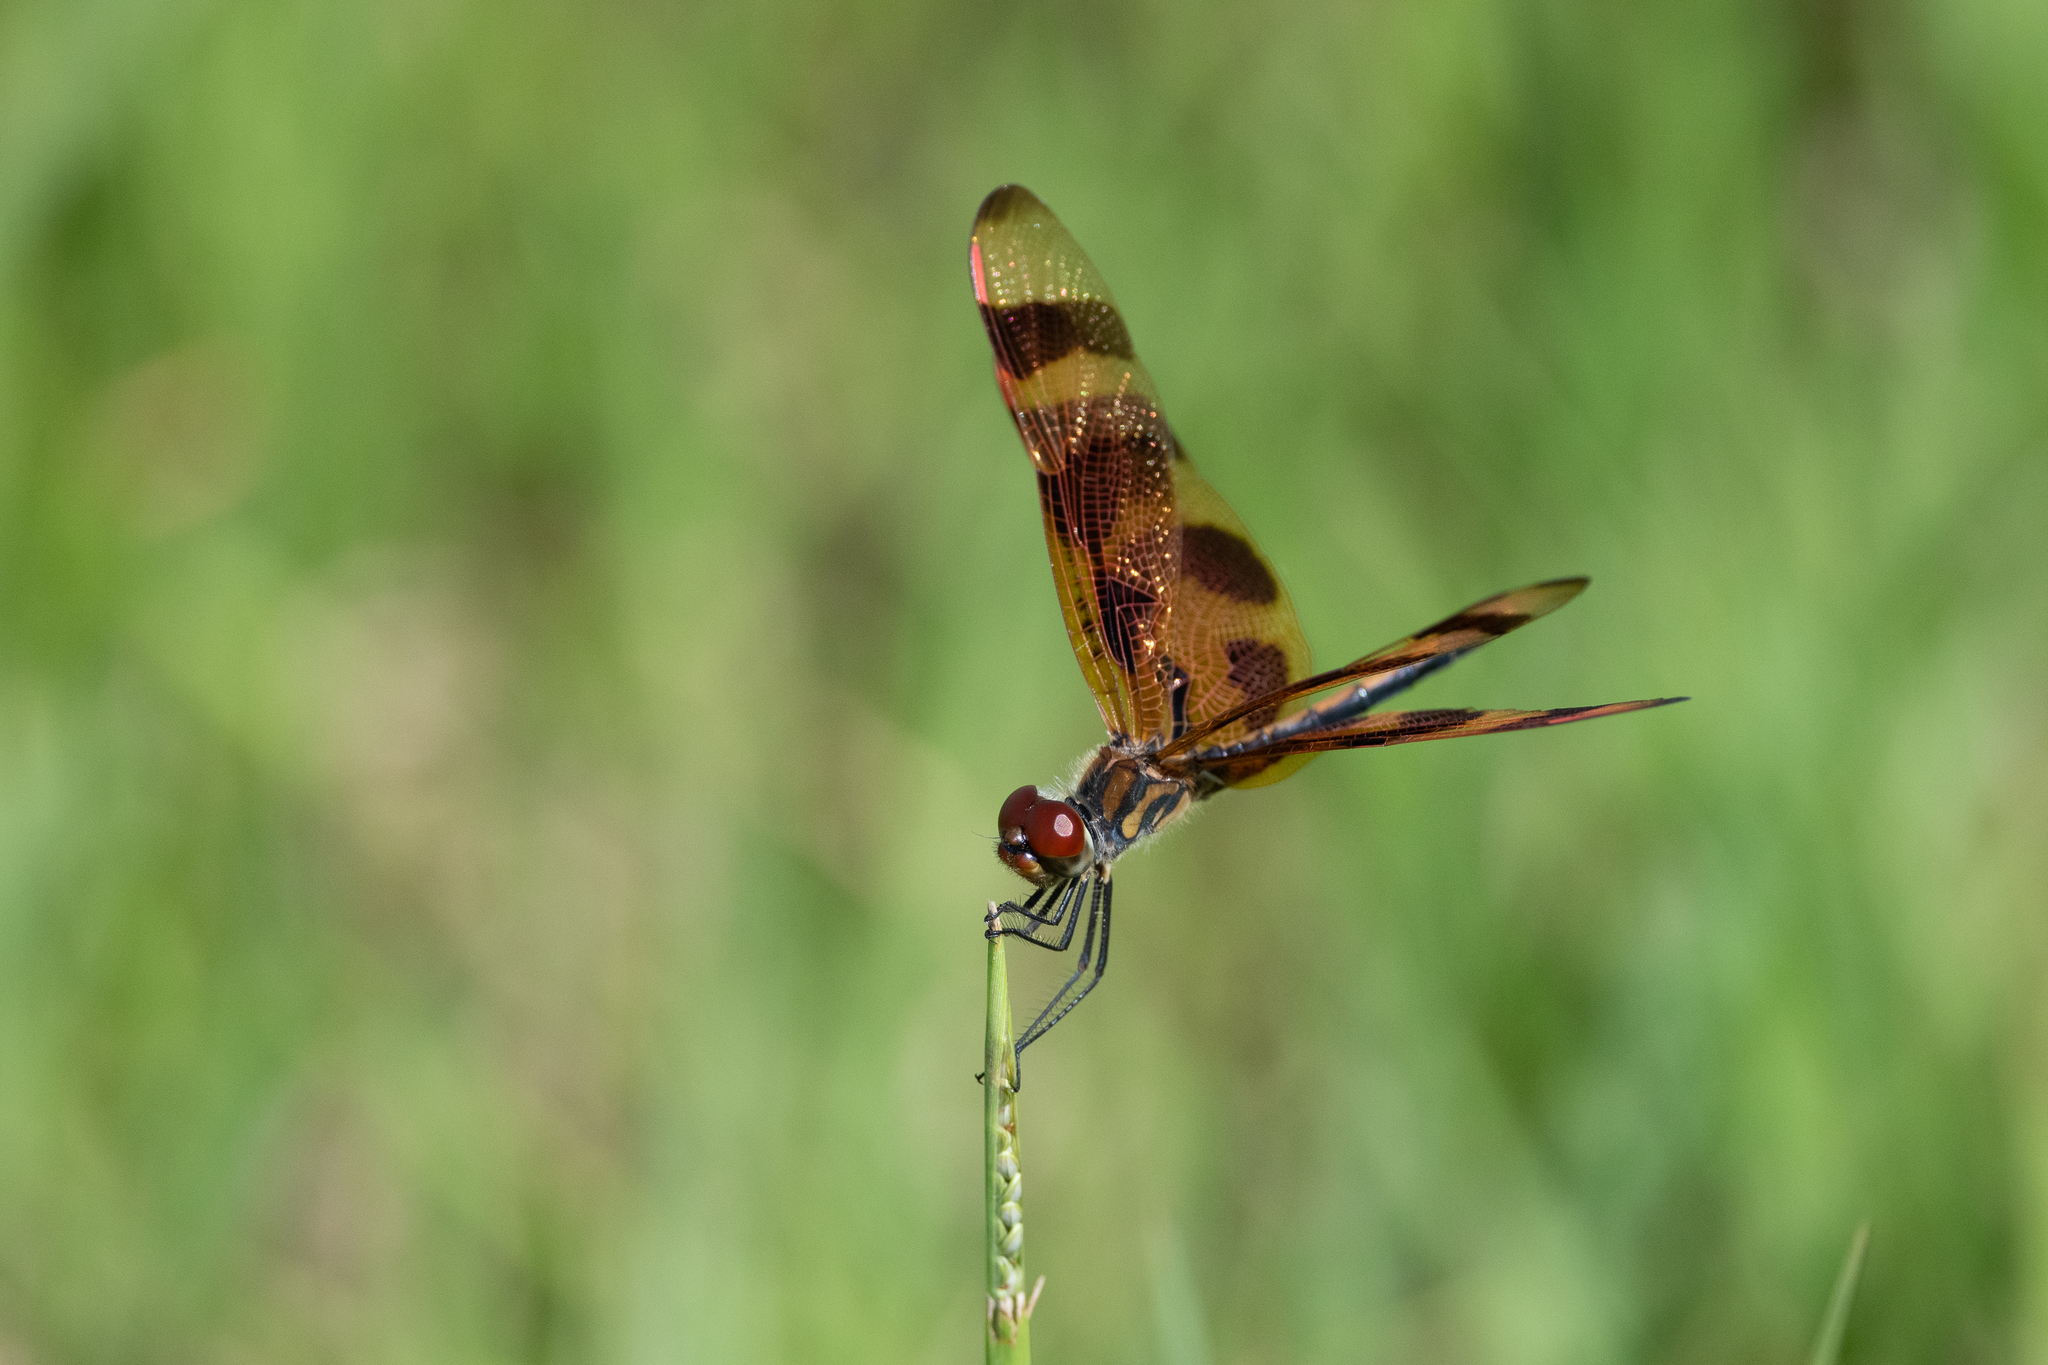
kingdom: Animalia
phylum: Arthropoda
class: Insecta
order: Odonata
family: Libellulidae
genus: Celithemis
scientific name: Celithemis eponina
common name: Halloween pennant
